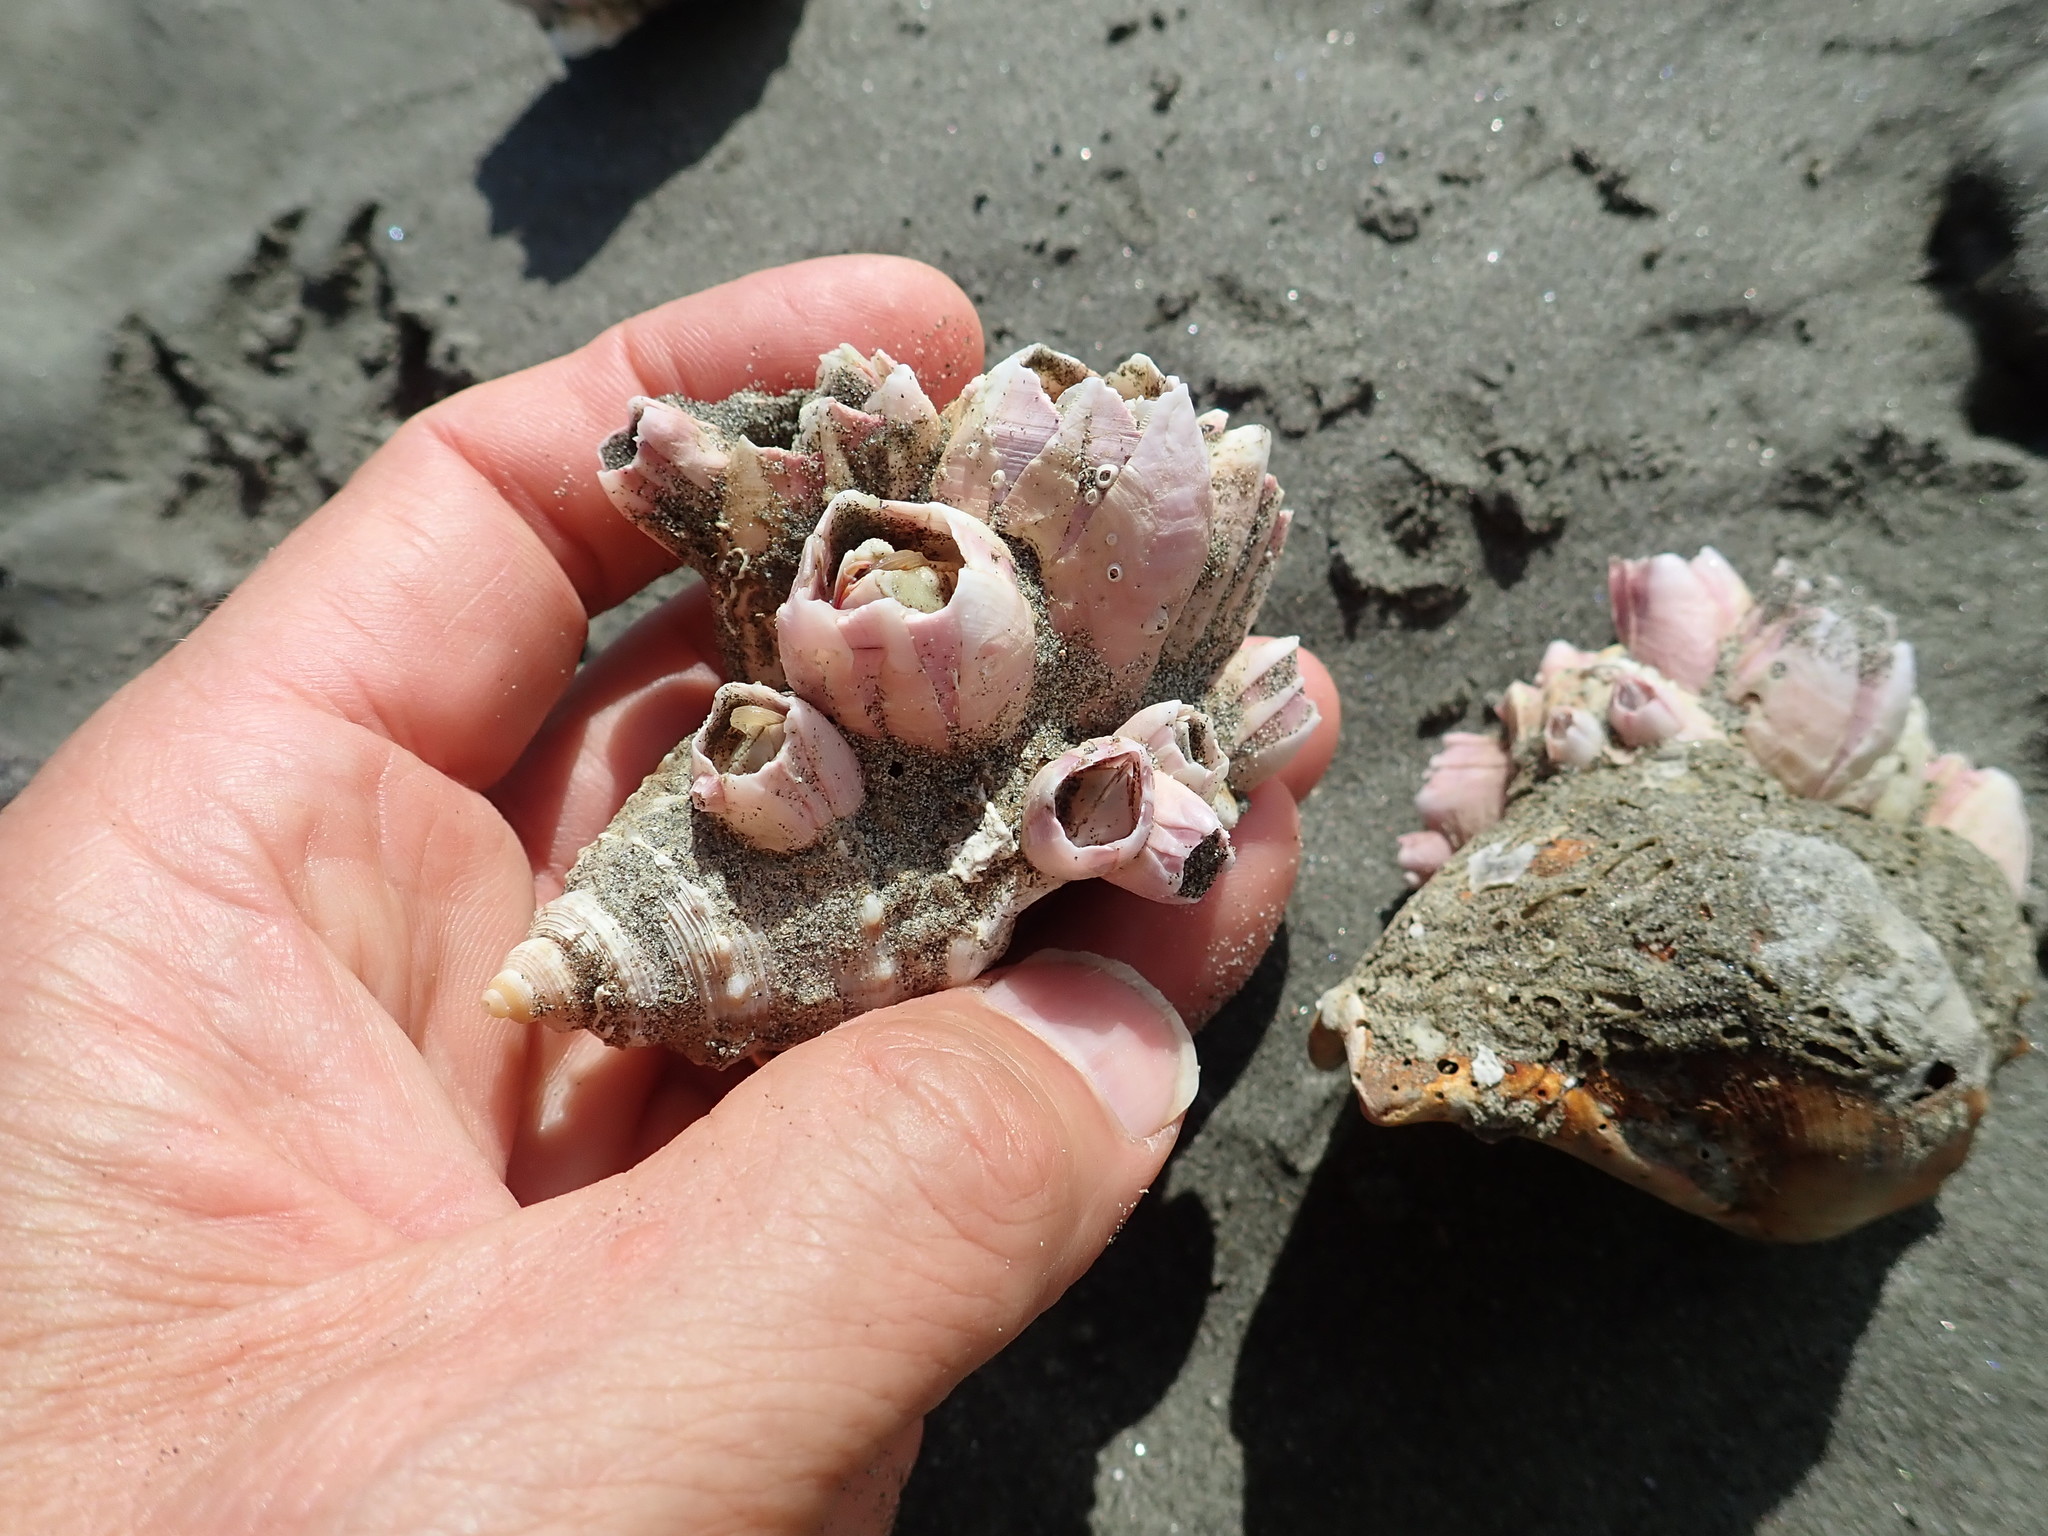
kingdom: Animalia
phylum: Arthropoda
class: Maxillopoda
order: Sessilia
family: Balanidae
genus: Notomegabalanus
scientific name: Notomegabalanus decorus
